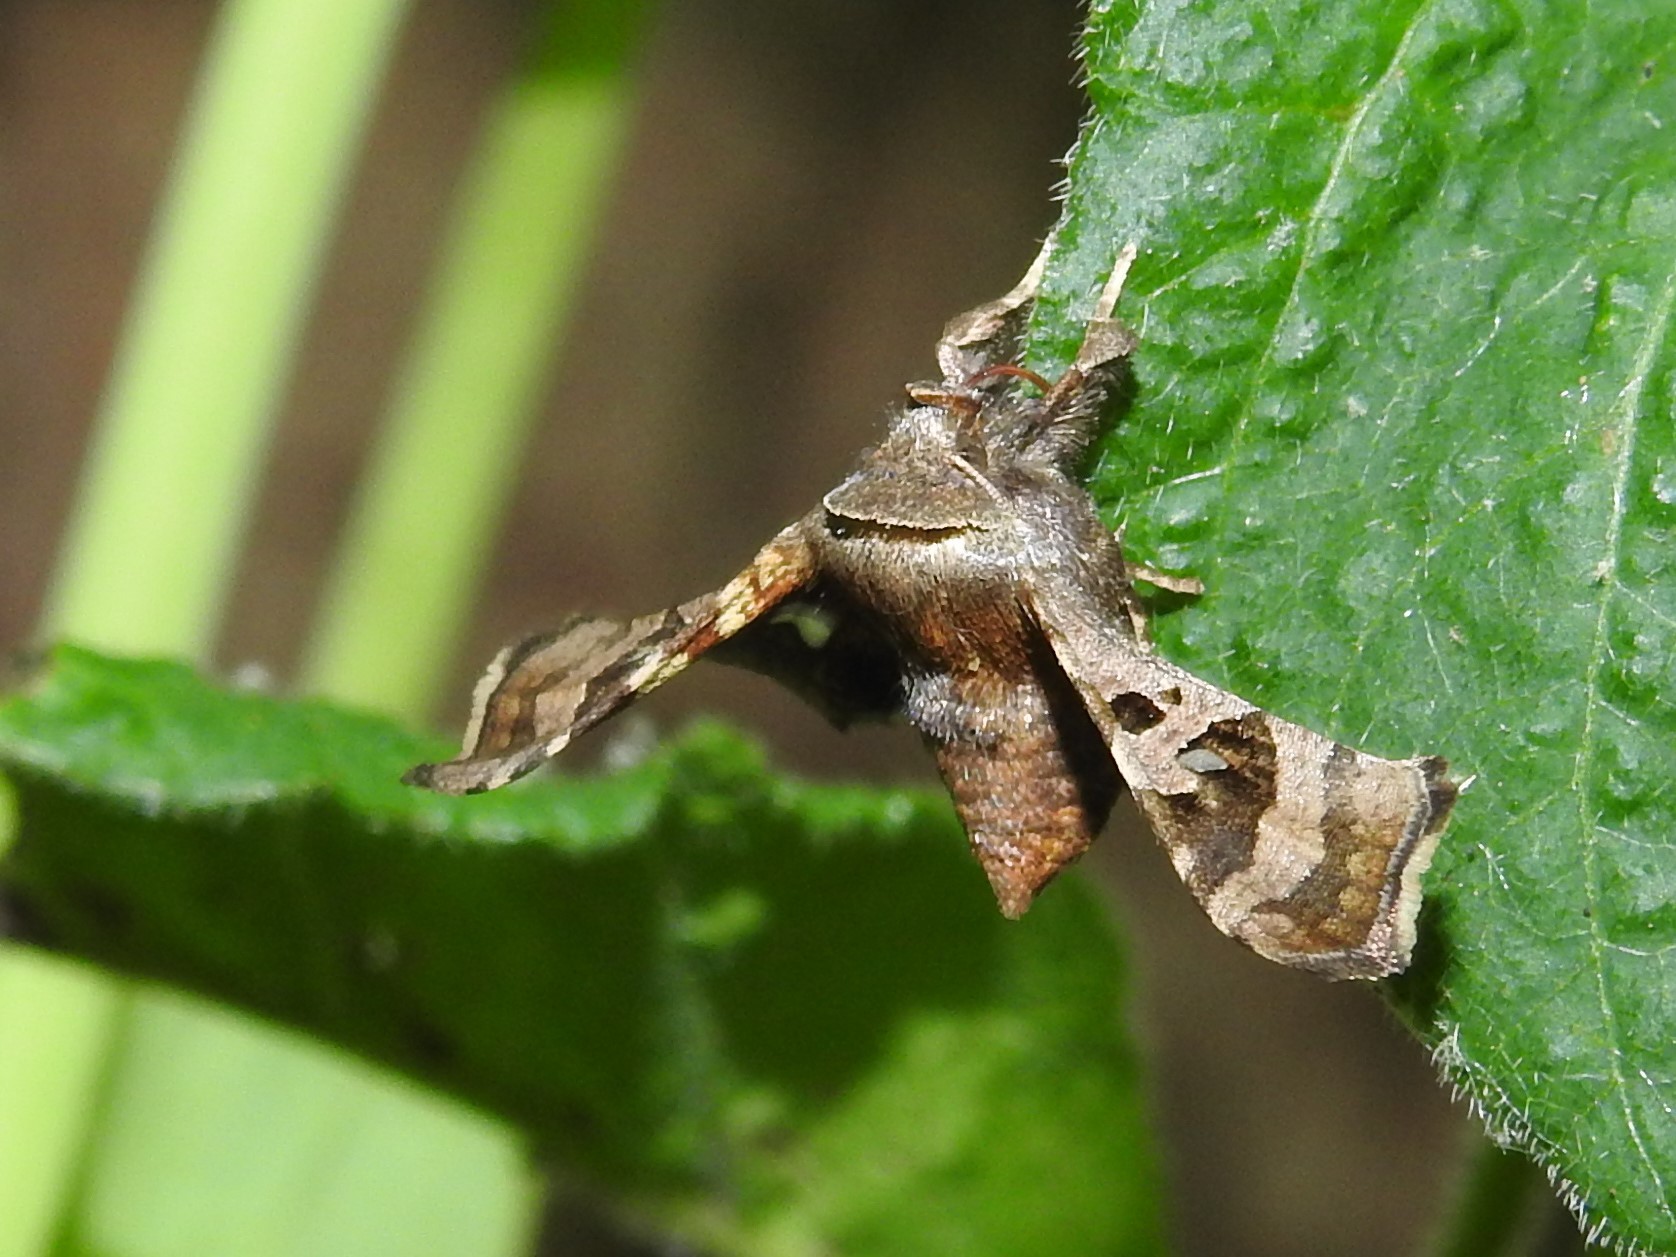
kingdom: Animalia
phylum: Arthropoda
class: Insecta
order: Lepidoptera
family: Thyrididae
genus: Dysodia
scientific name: Dysodia oculatana
